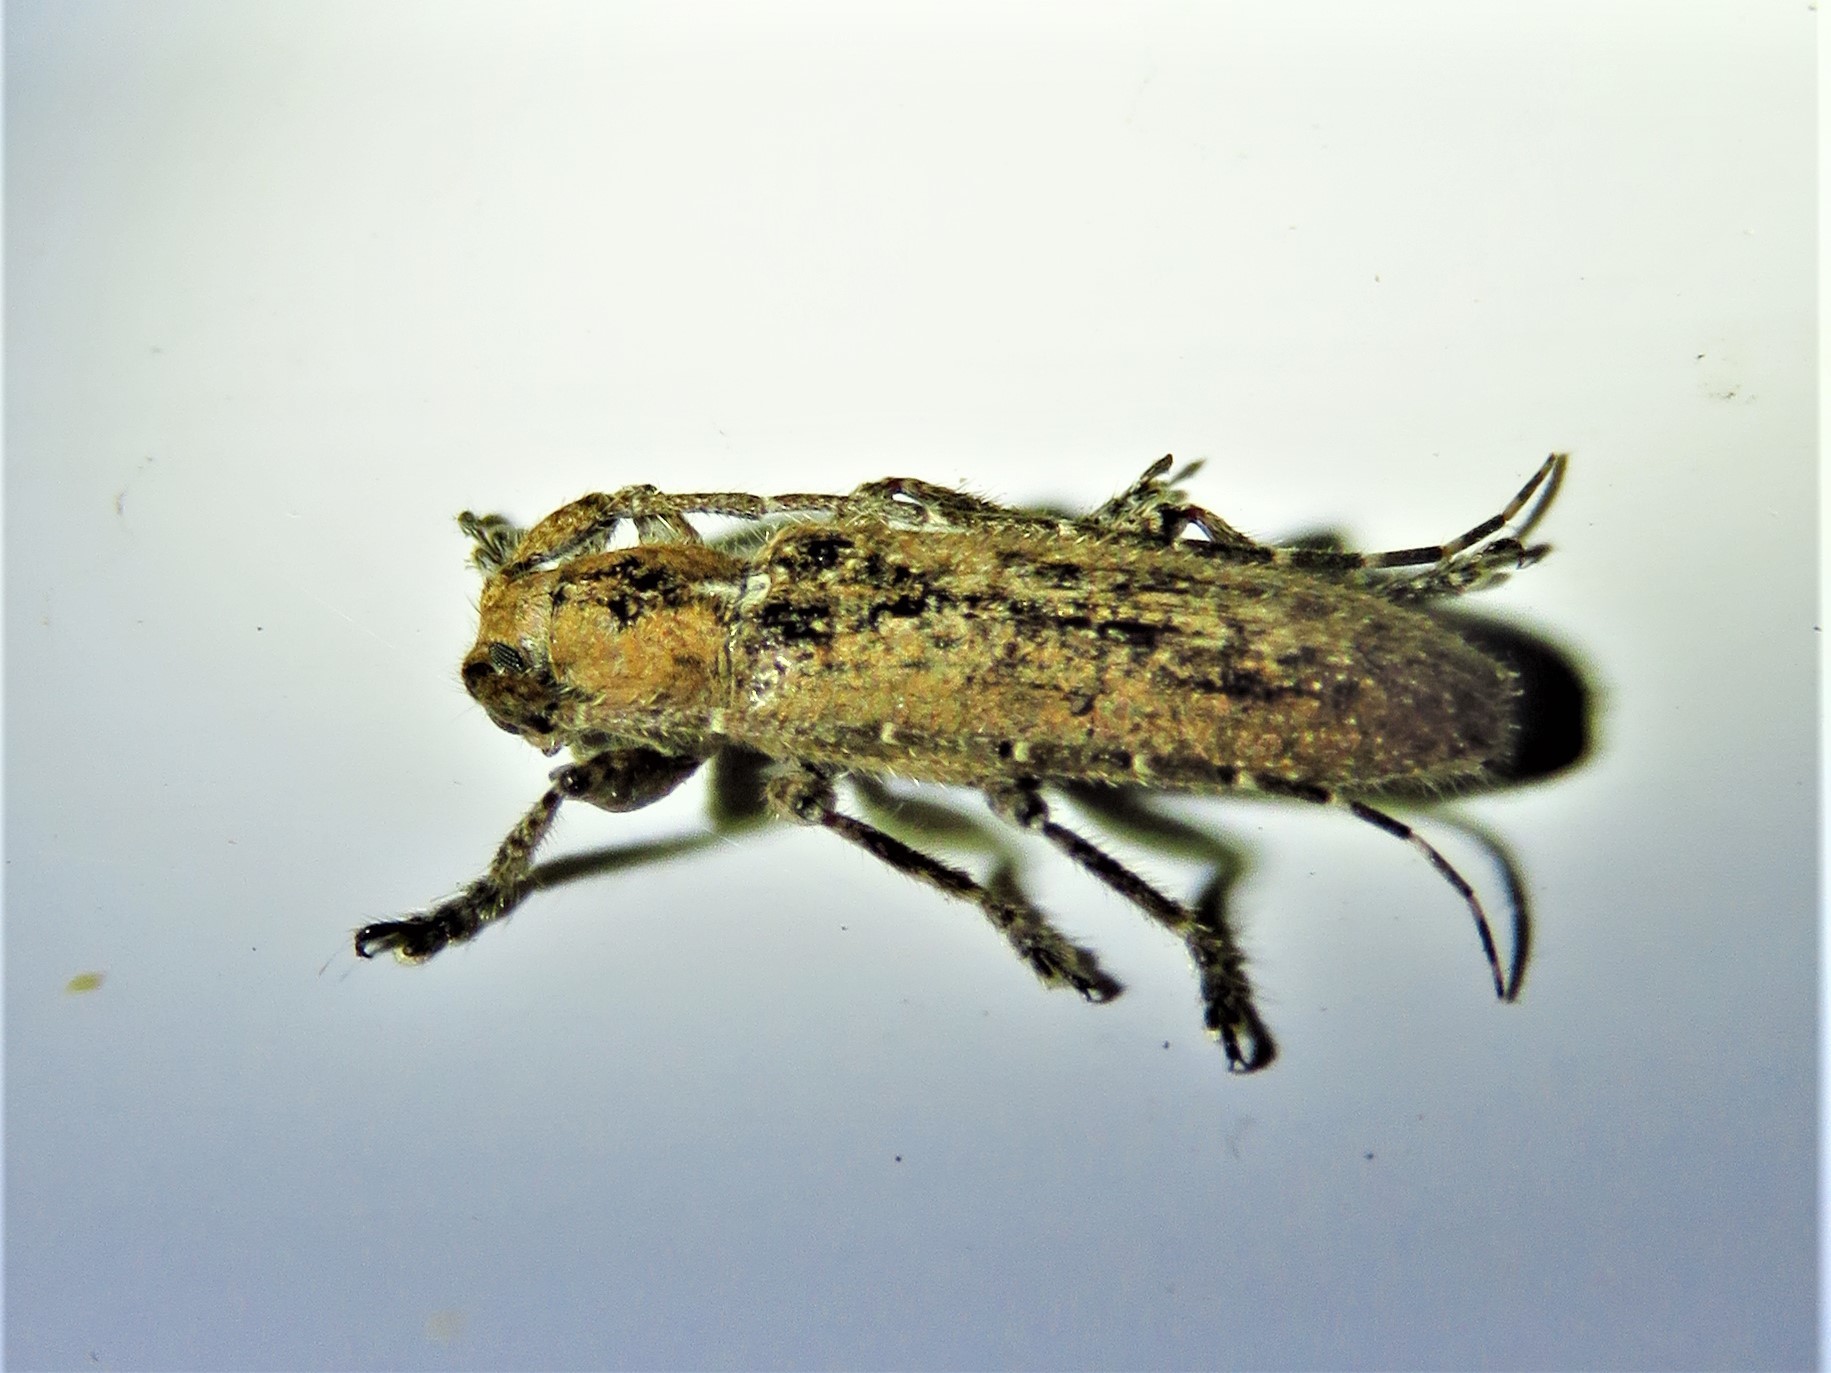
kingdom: Animalia
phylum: Arthropoda
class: Insecta
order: Coleoptera
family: Cerambycidae
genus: Ataxia
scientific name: Ataxia crypta
